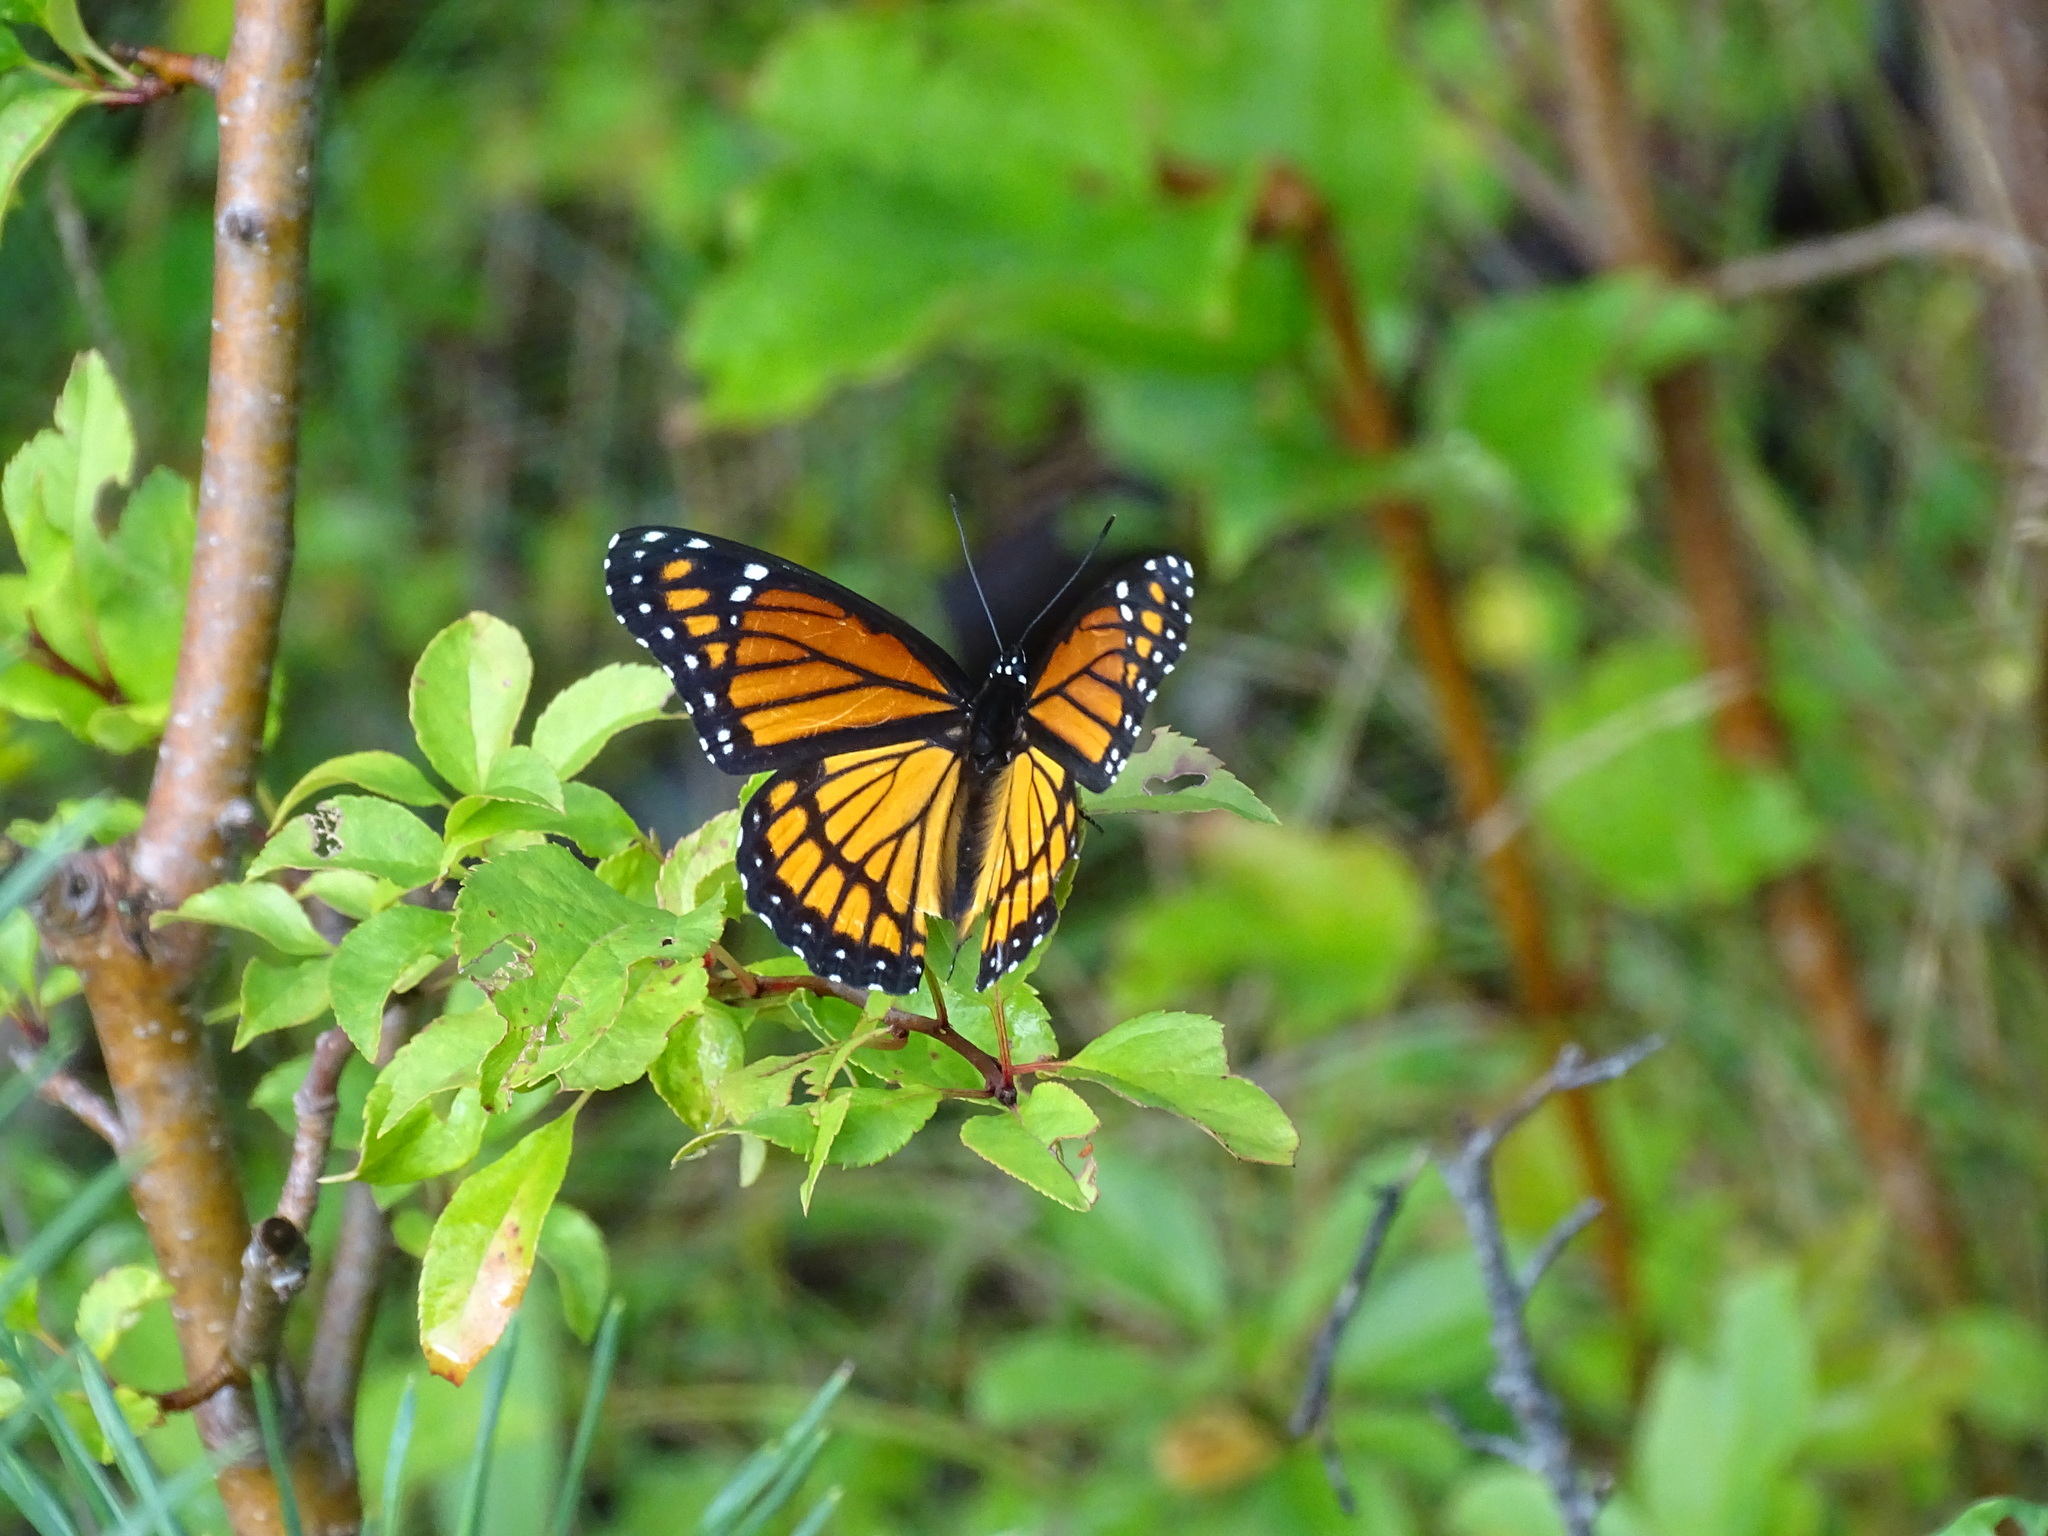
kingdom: Animalia
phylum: Arthropoda
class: Insecta
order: Lepidoptera
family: Nymphalidae
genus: Limenitis
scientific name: Limenitis archippus
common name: Viceroy
